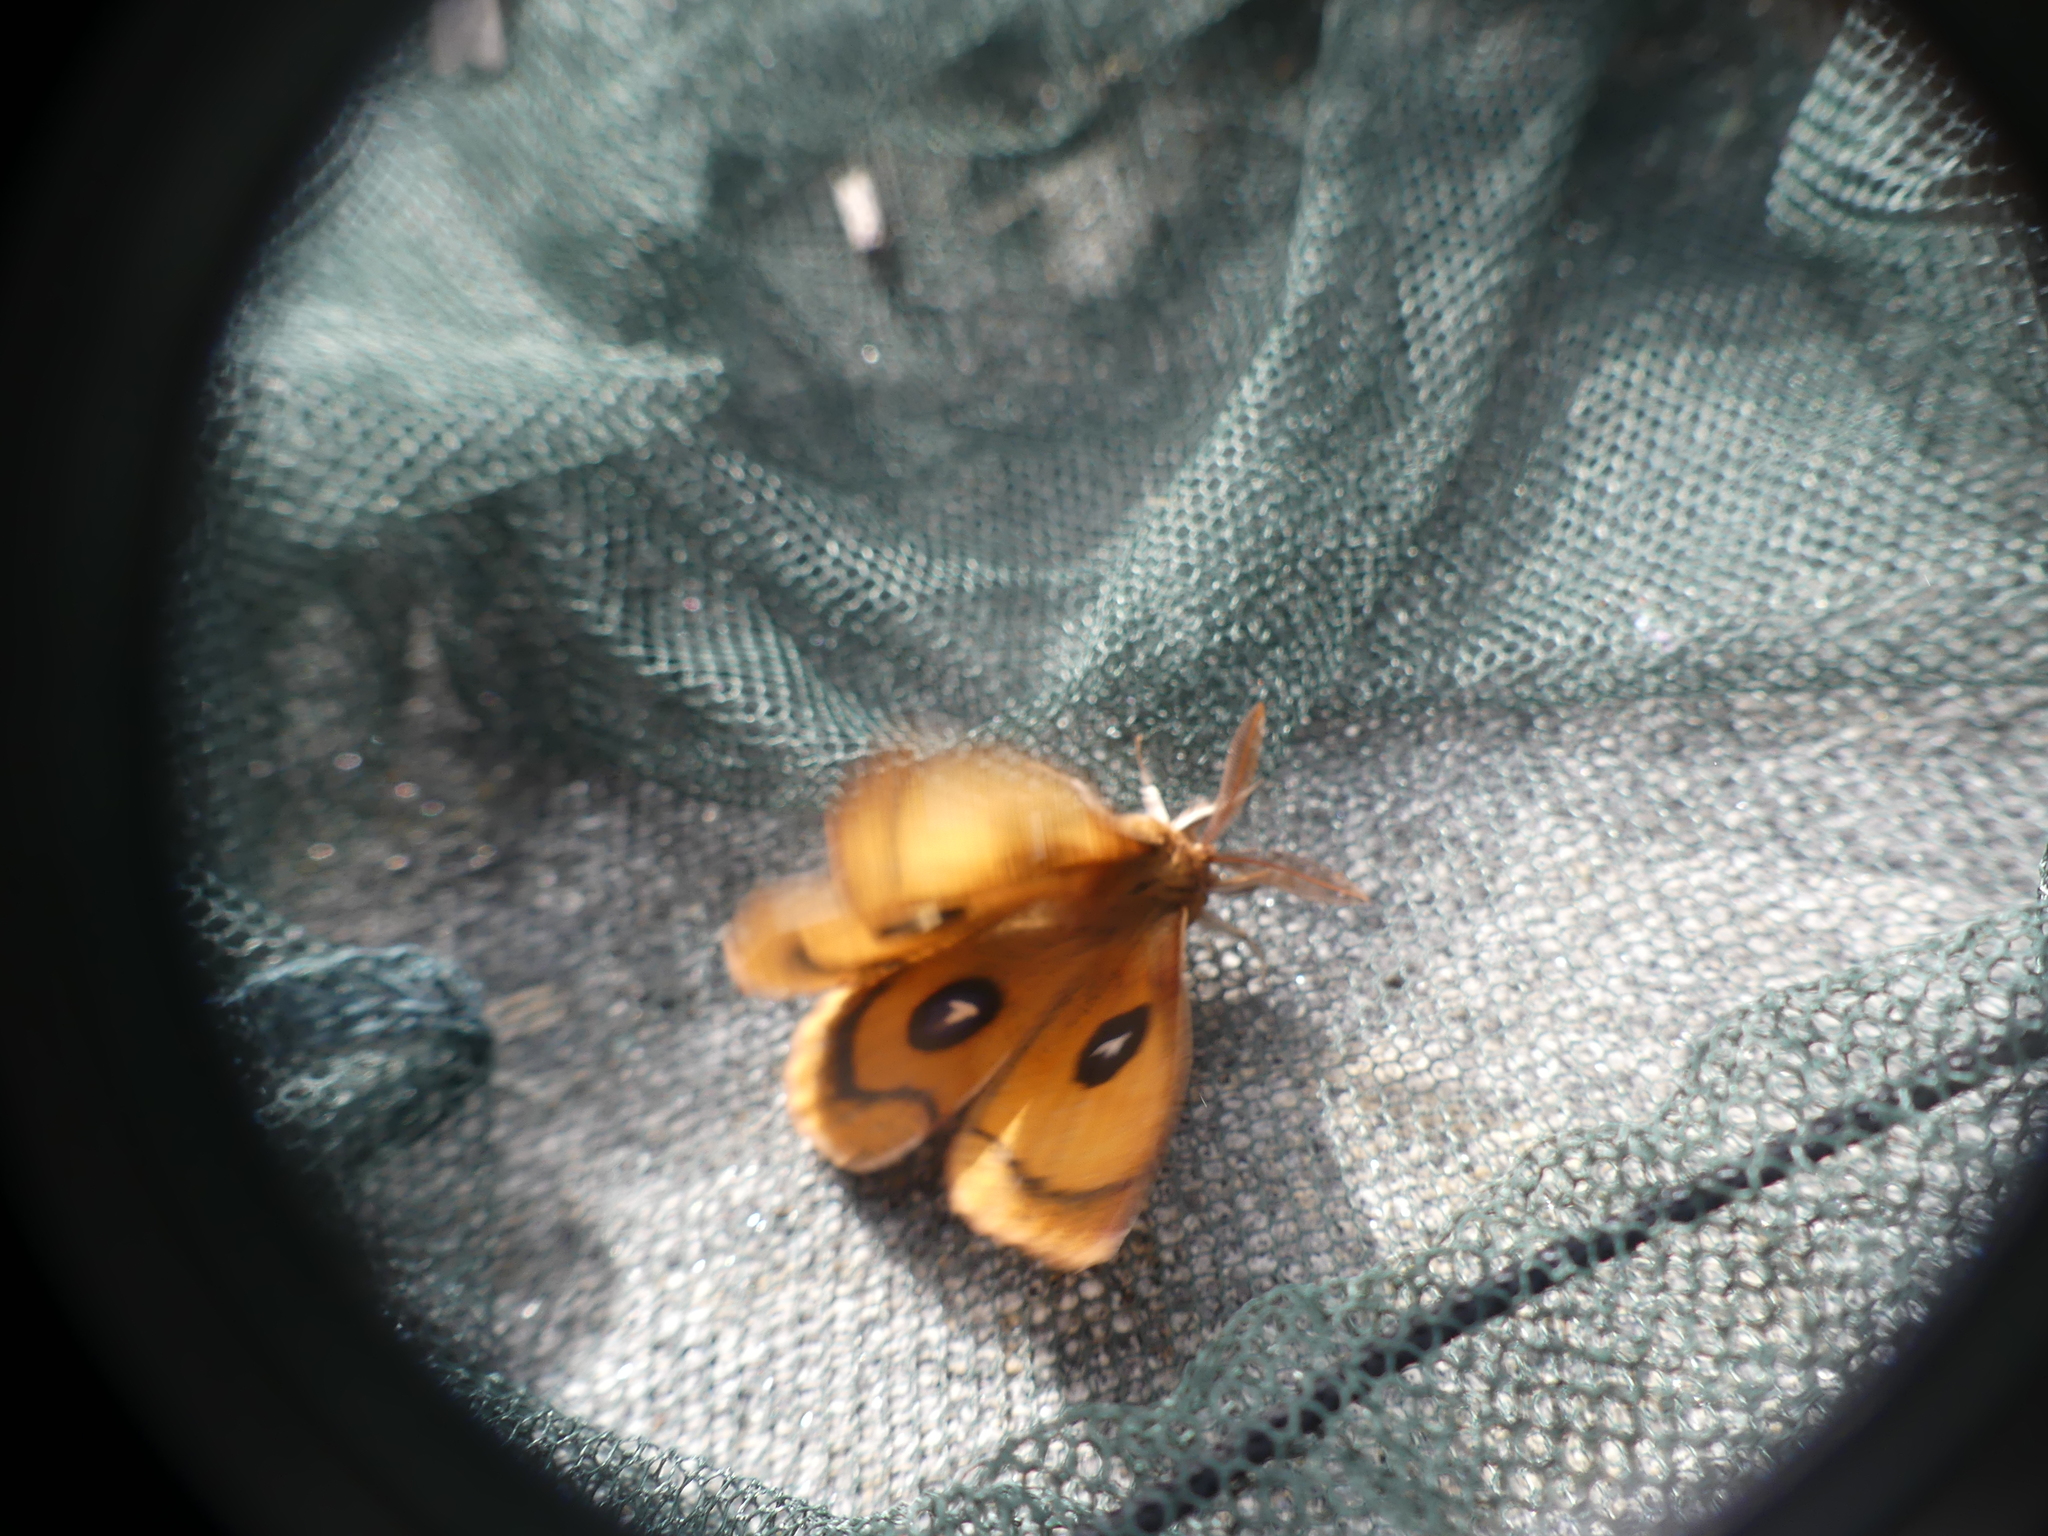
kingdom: Animalia
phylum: Arthropoda
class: Insecta
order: Lepidoptera
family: Saturniidae
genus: Aglia
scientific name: Aglia tau
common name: Tau emperor
